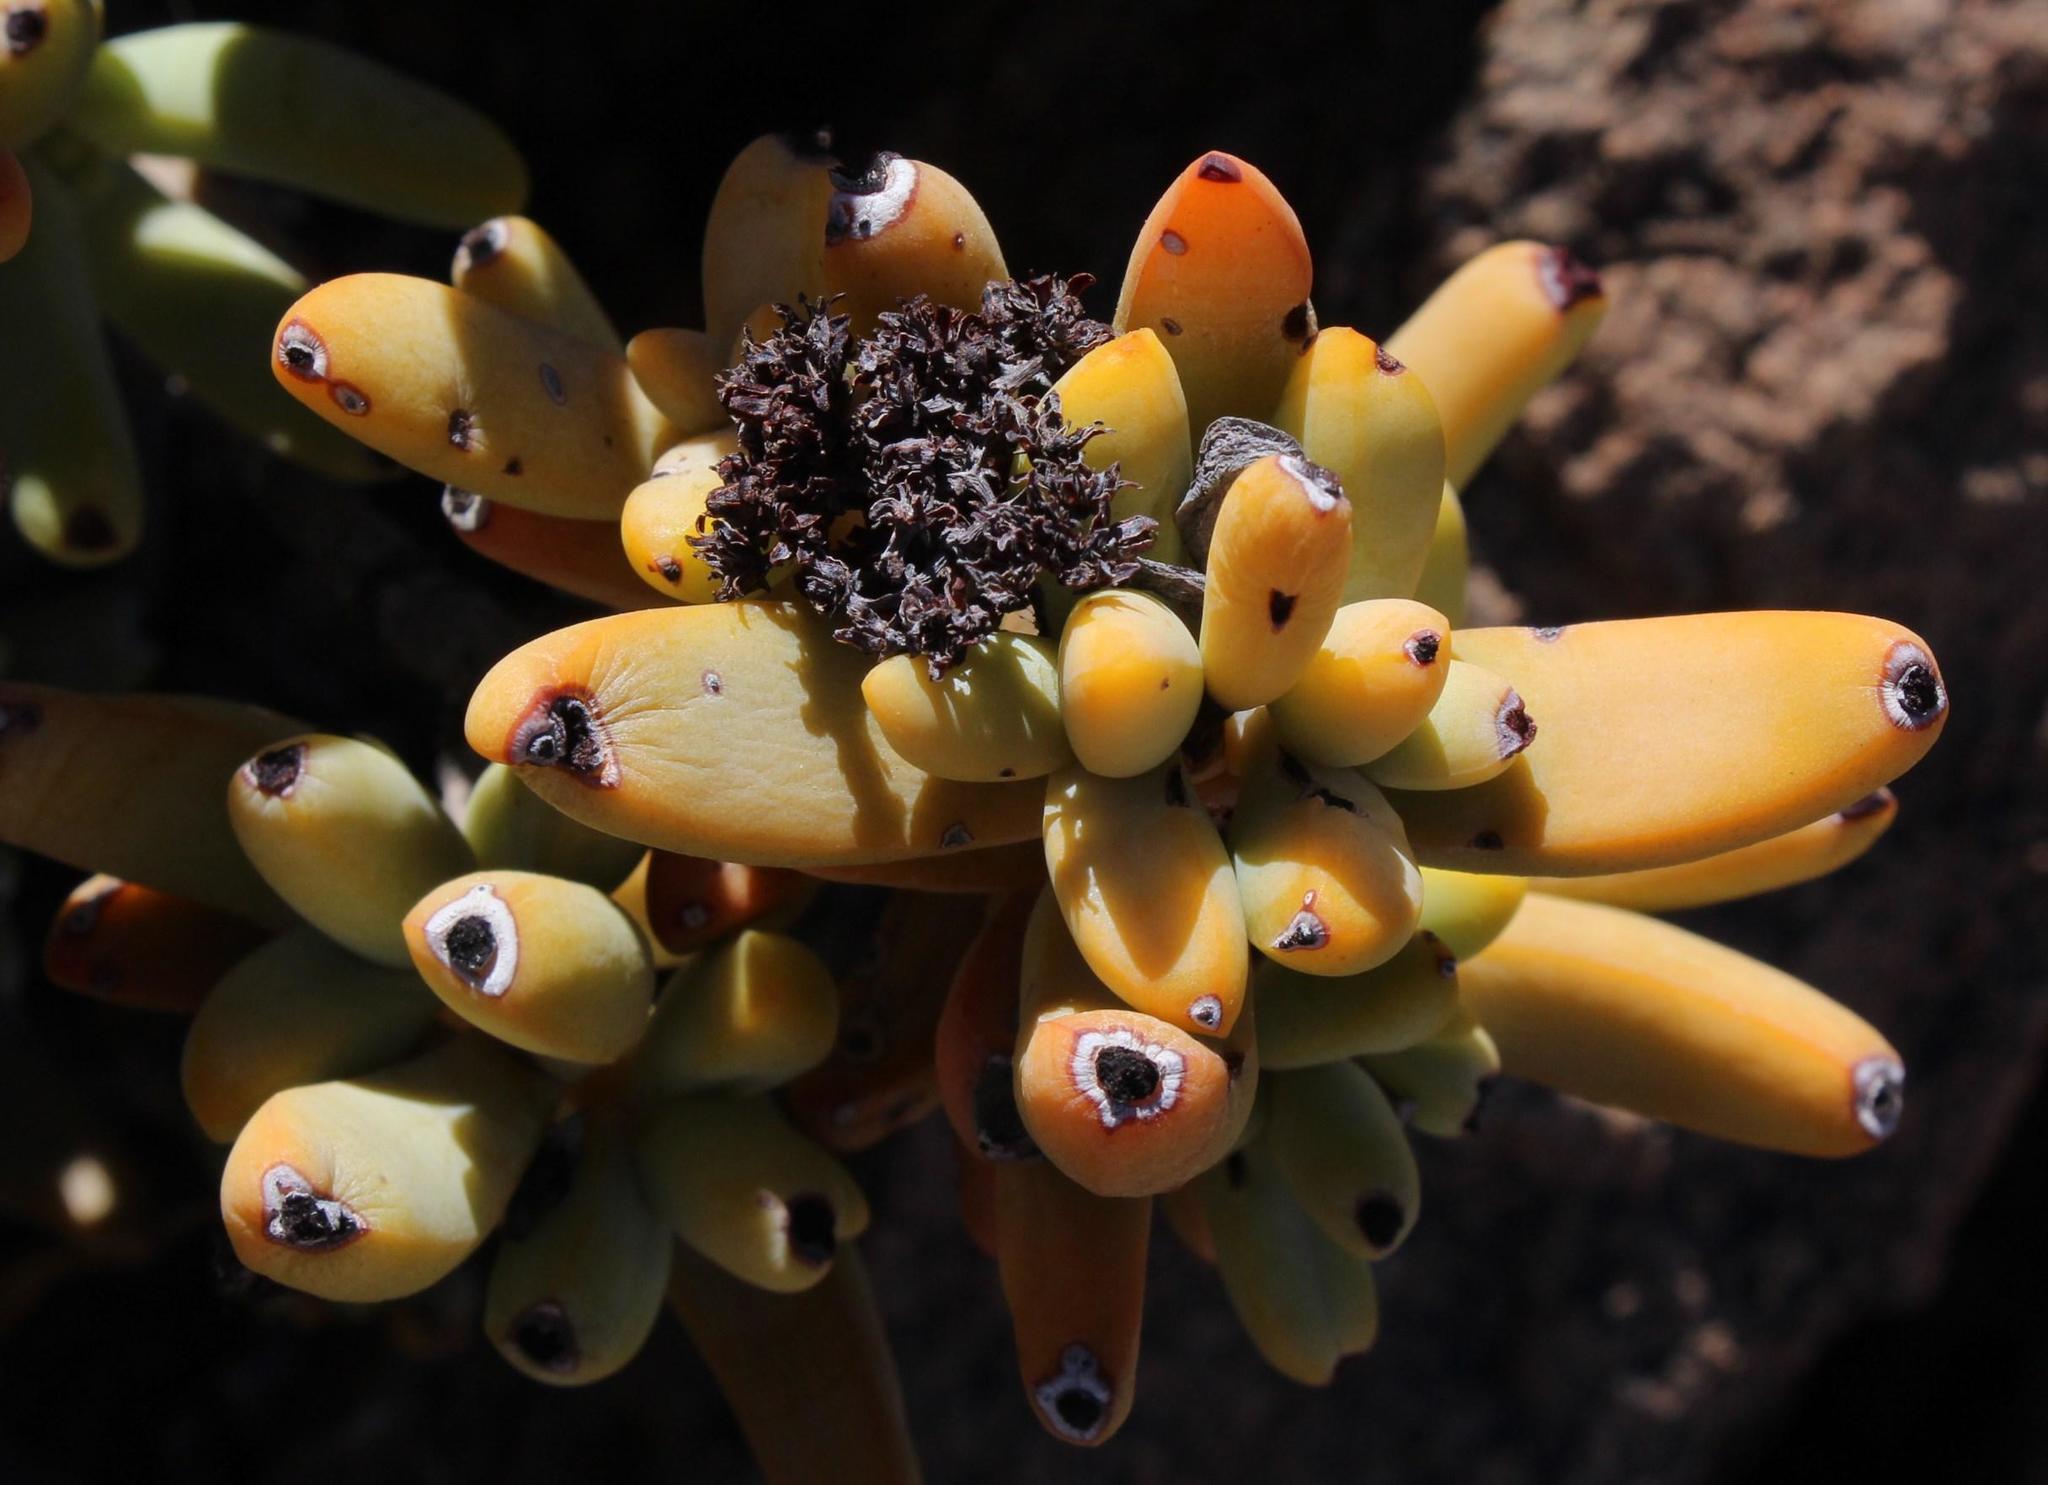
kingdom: Plantae
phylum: Tracheophyta
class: Magnoliopsida
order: Saxifragales
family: Crassulaceae
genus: Crassula
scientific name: Crassula brevifolia
